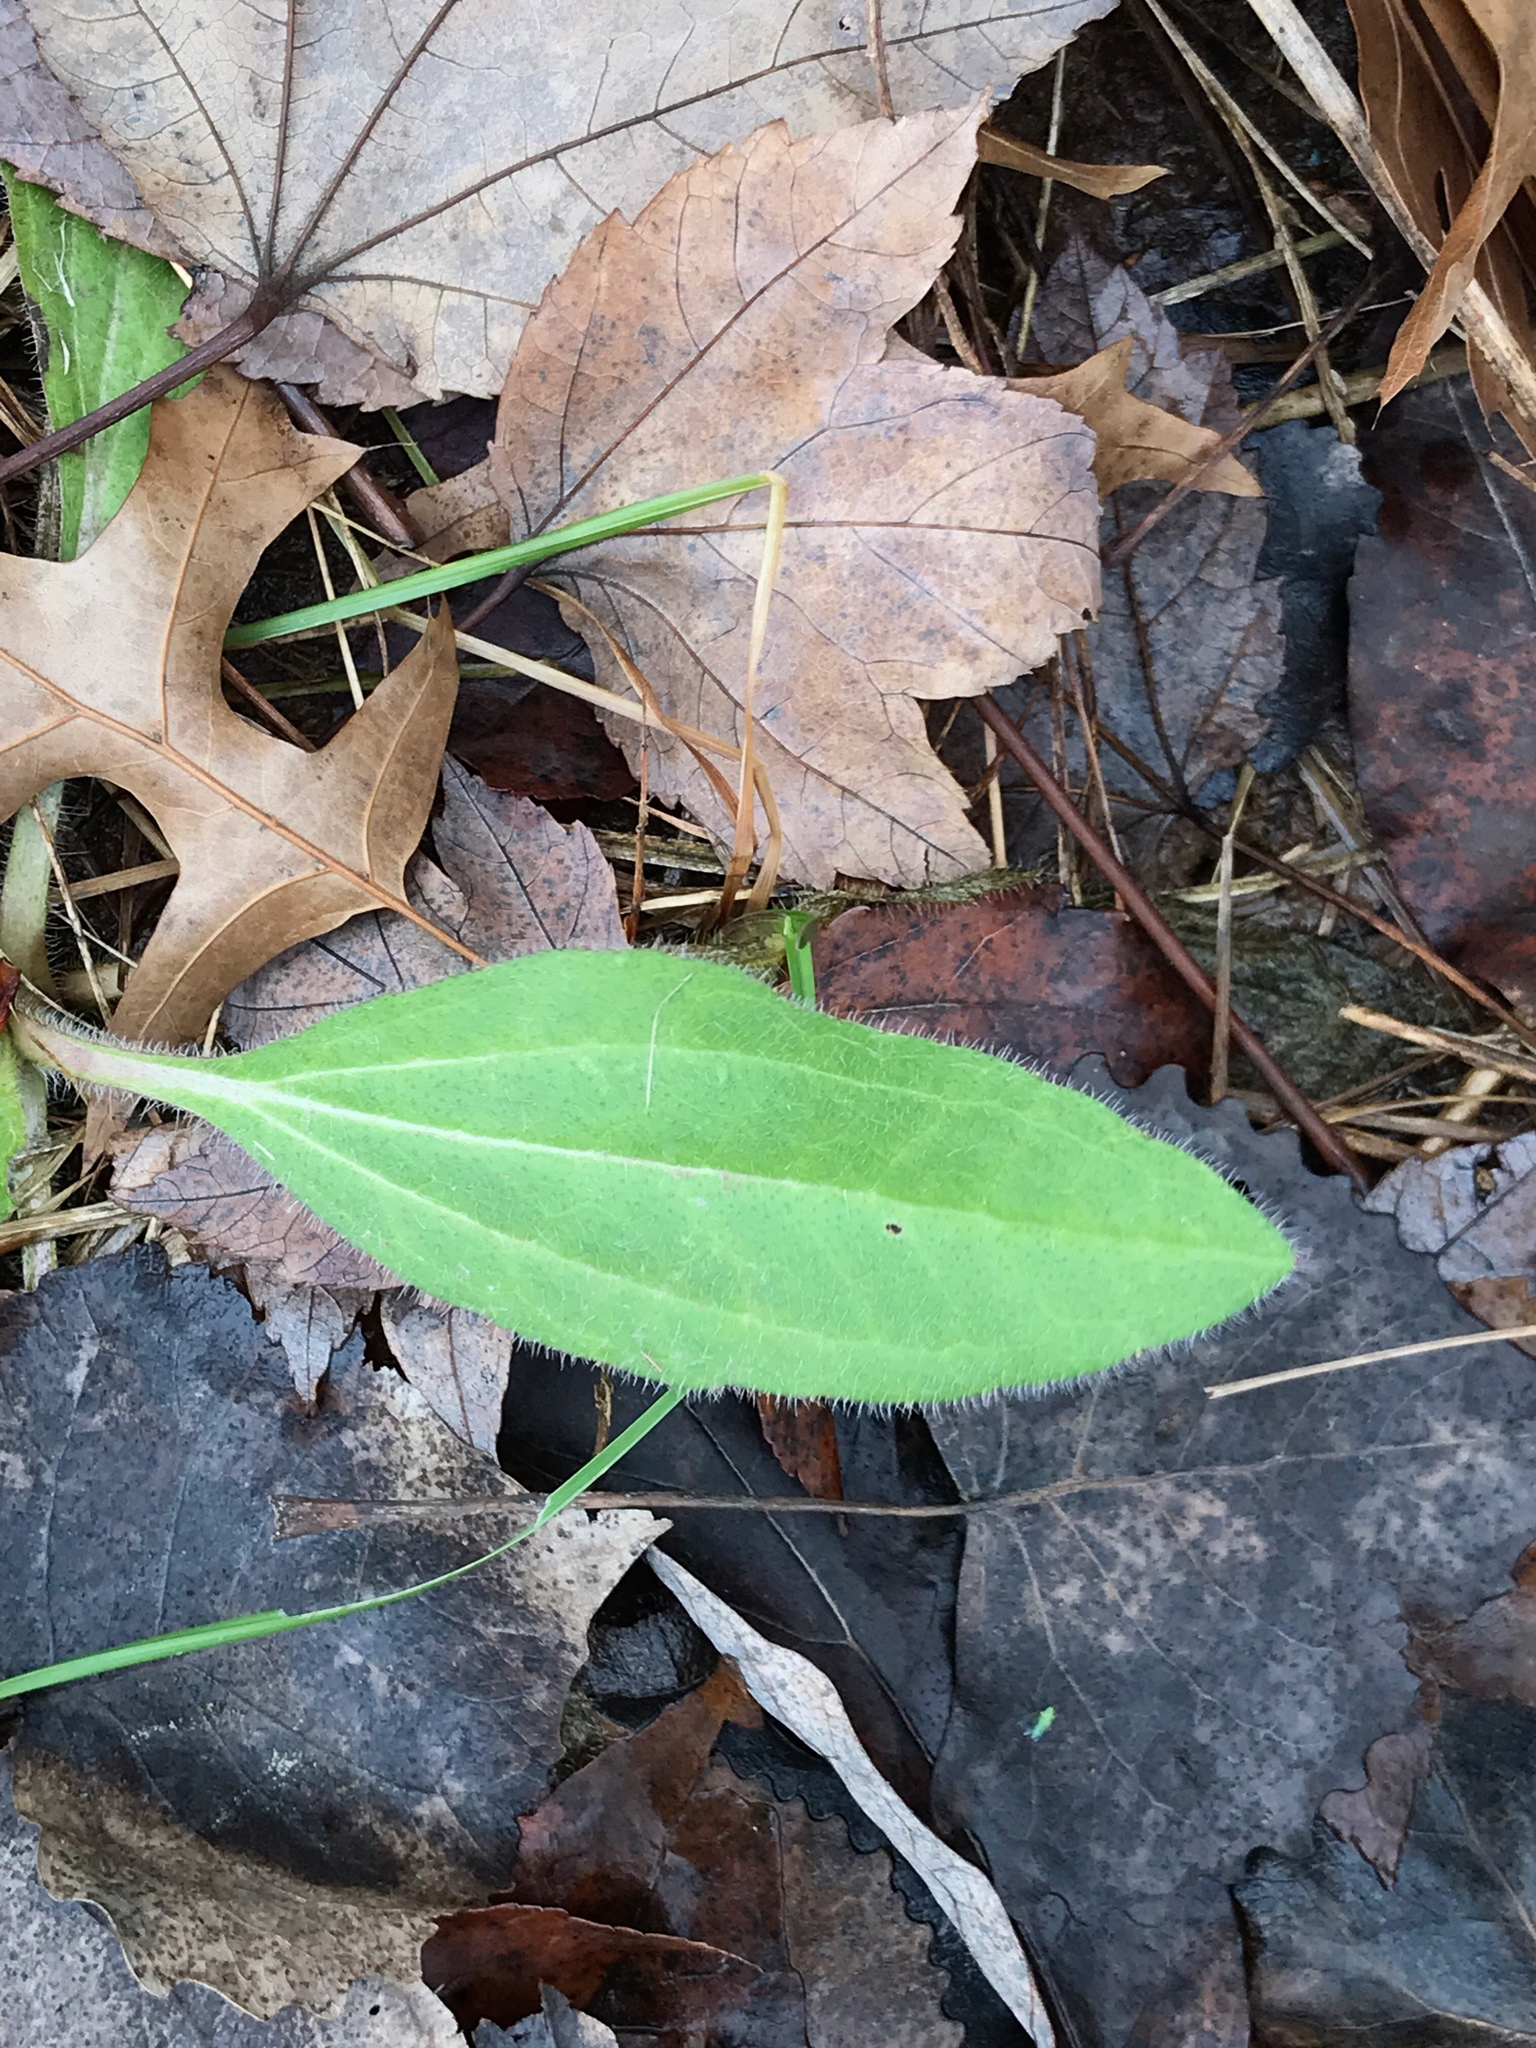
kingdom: Plantae
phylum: Tracheophyta
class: Magnoliopsida
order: Asterales
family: Asteraceae
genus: Rudbeckia
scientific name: Rudbeckia hirta
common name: Black-eyed-susan
